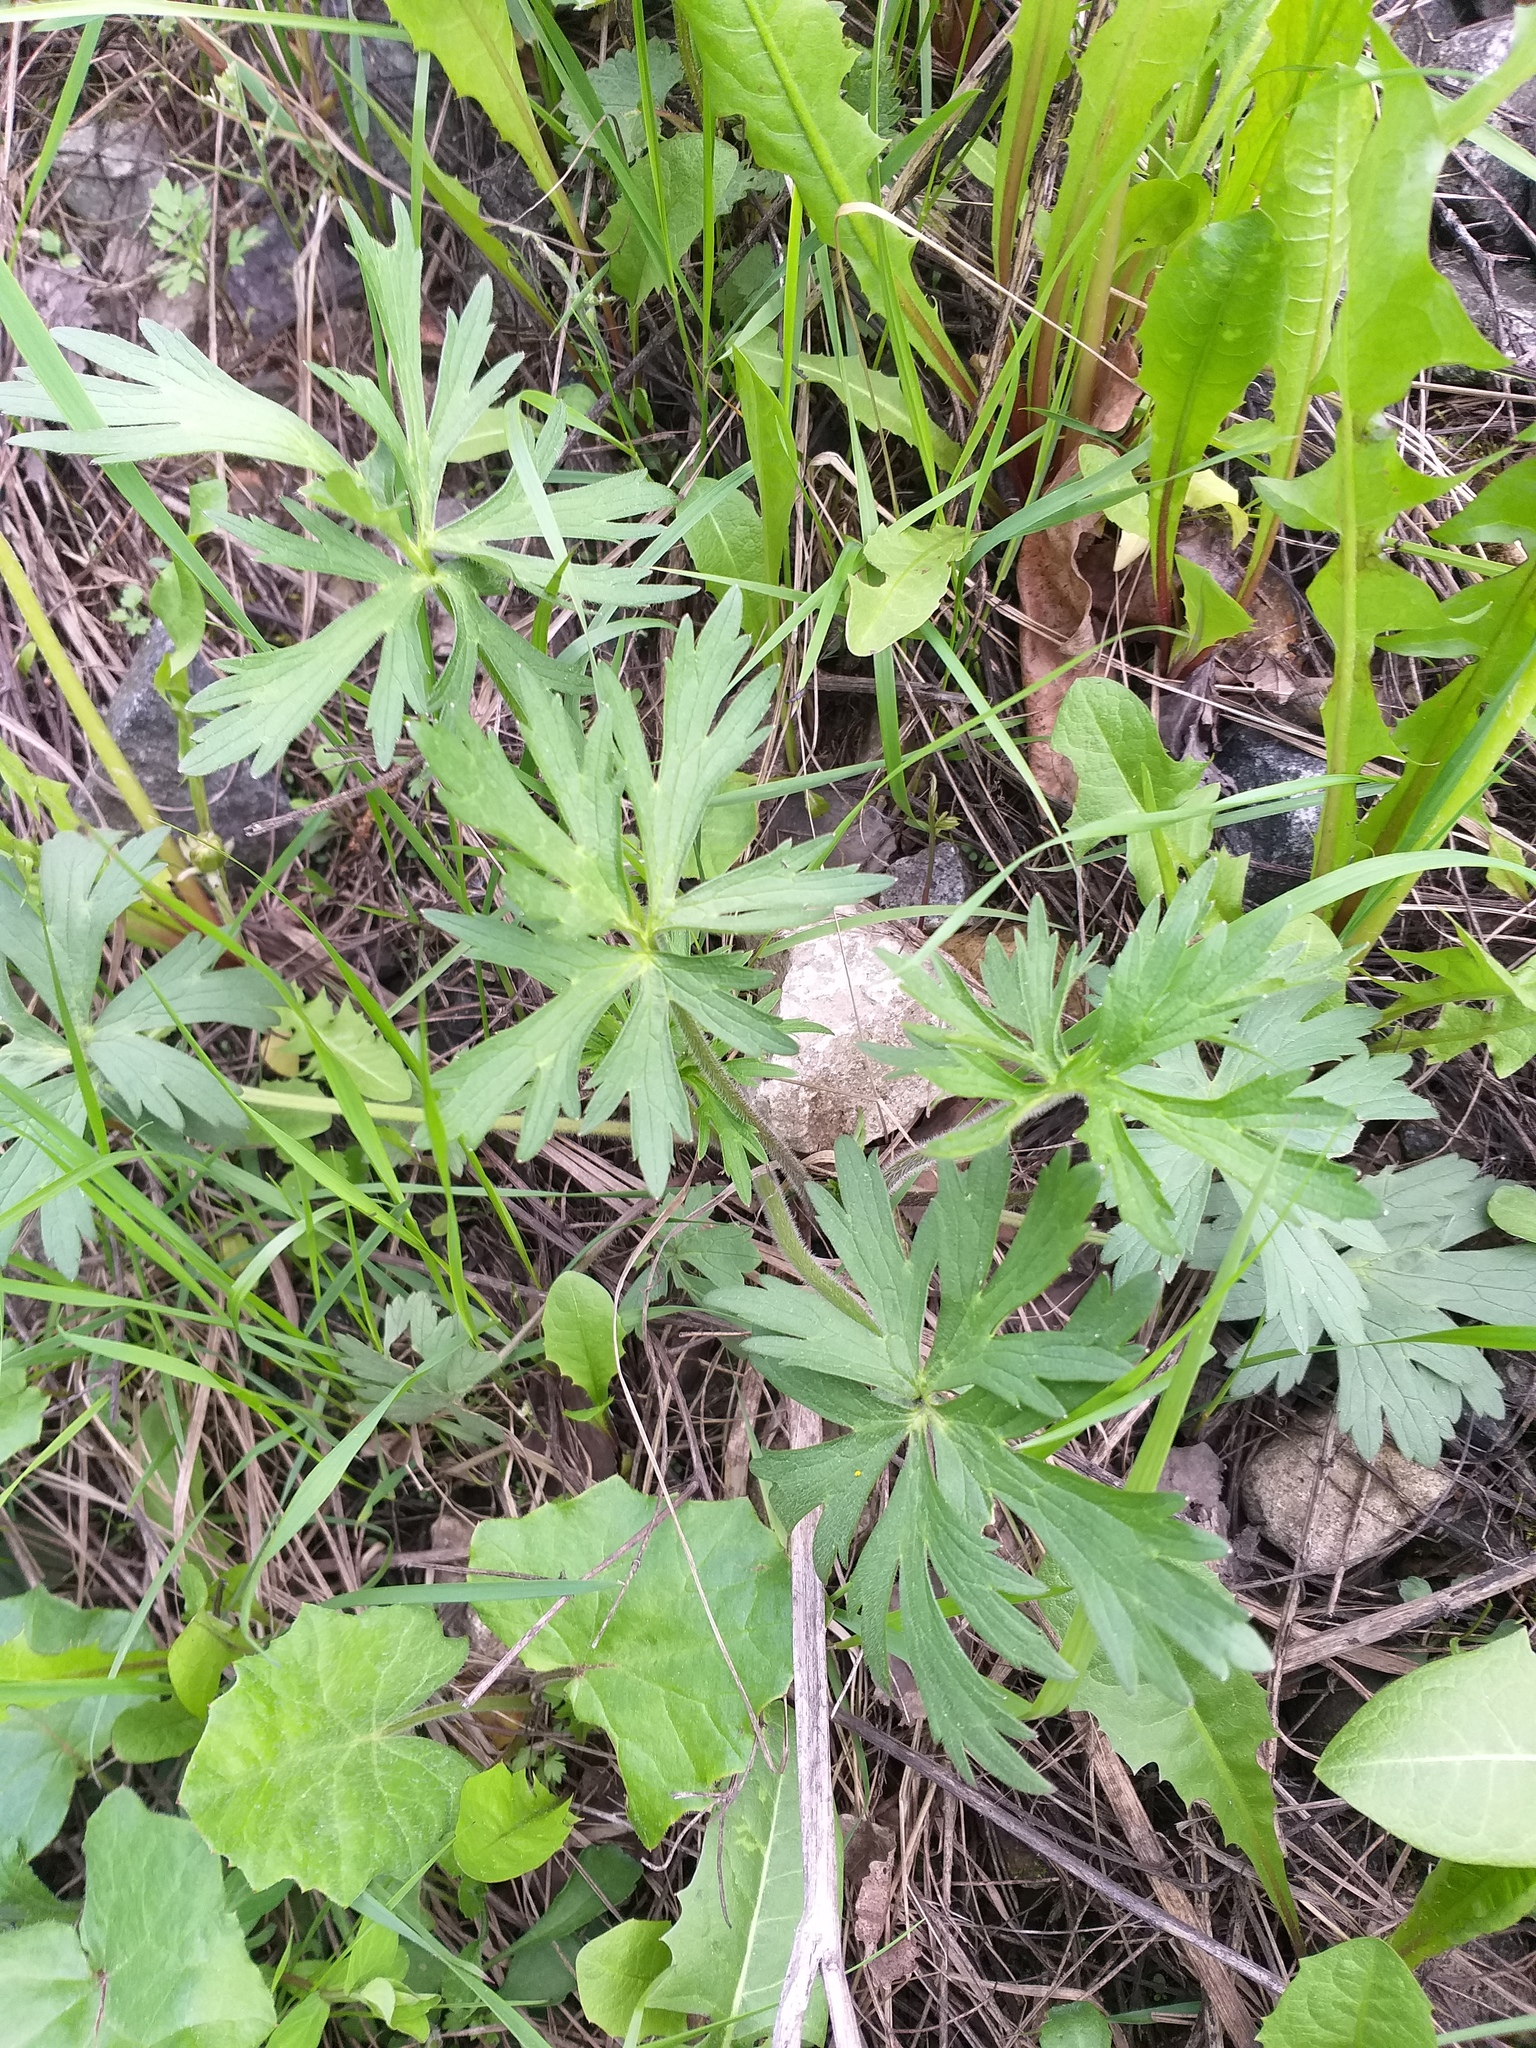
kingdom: Plantae
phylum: Tracheophyta
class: Magnoliopsida
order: Ranunculales
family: Ranunculaceae
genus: Ranunculus
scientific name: Ranunculus polyanthemos
